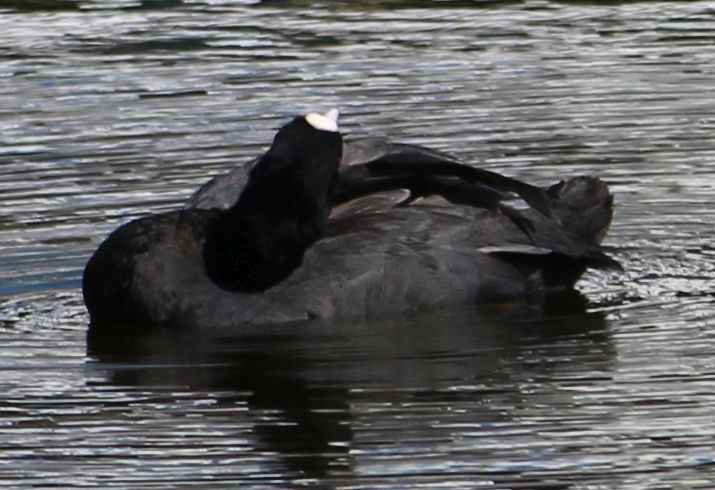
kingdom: Animalia
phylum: Chordata
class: Aves
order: Gruiformes
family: Rallidae
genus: Fulica
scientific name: Fulica atra
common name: Eurasian coot
